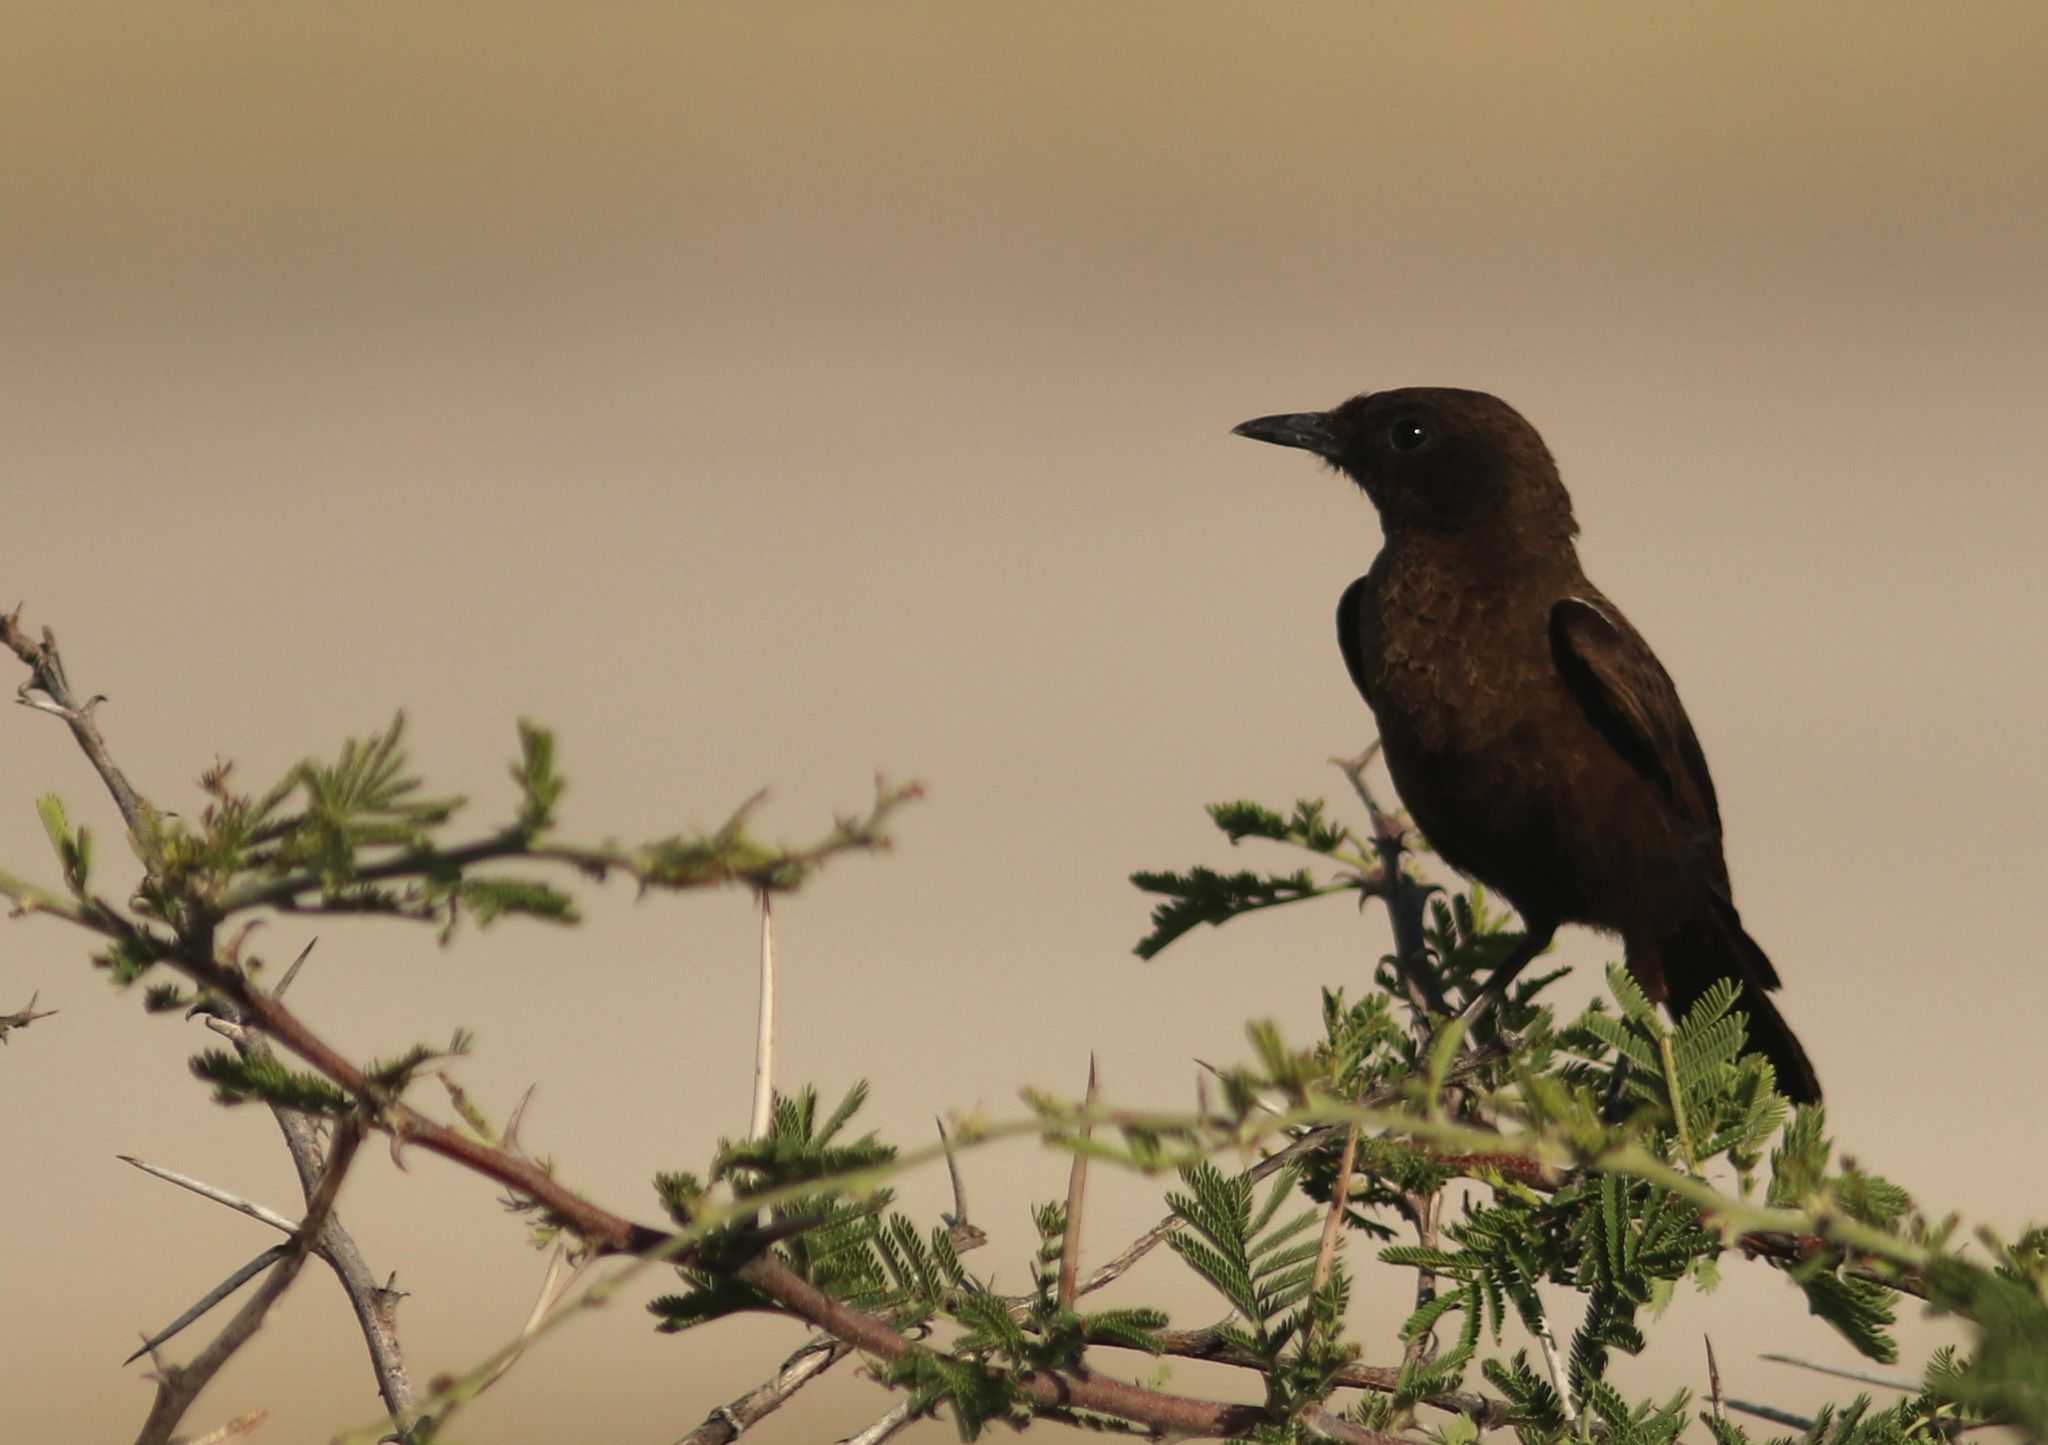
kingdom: Animalia
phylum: Chordata
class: Aves
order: Passeriformes
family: Muscicapidae
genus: Myrmecocichla
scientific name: Myrmecocichla formicivora
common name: Ant-eating chat
